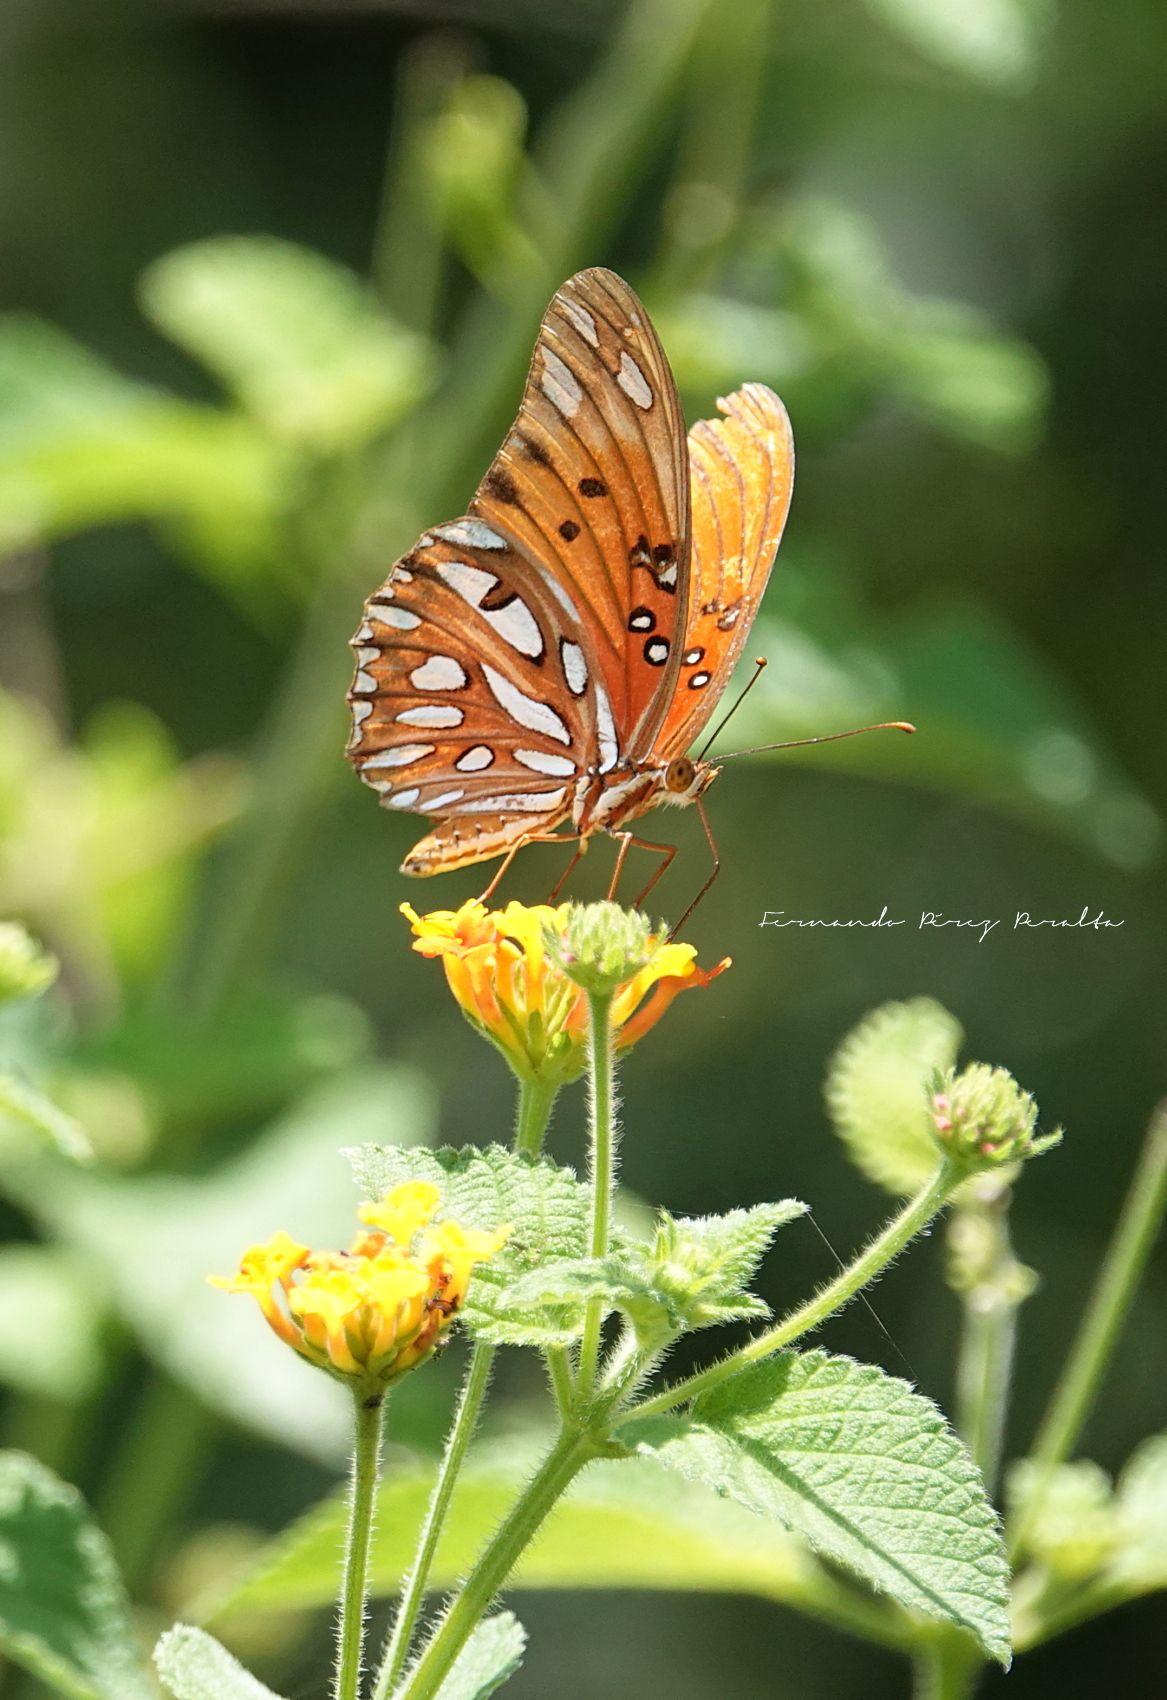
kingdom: Animalia
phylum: Arthropoda
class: Insecta
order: Lepidoptera
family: Nymphalidae
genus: Dione
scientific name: Dione vanillae
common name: Gulf fritillary
